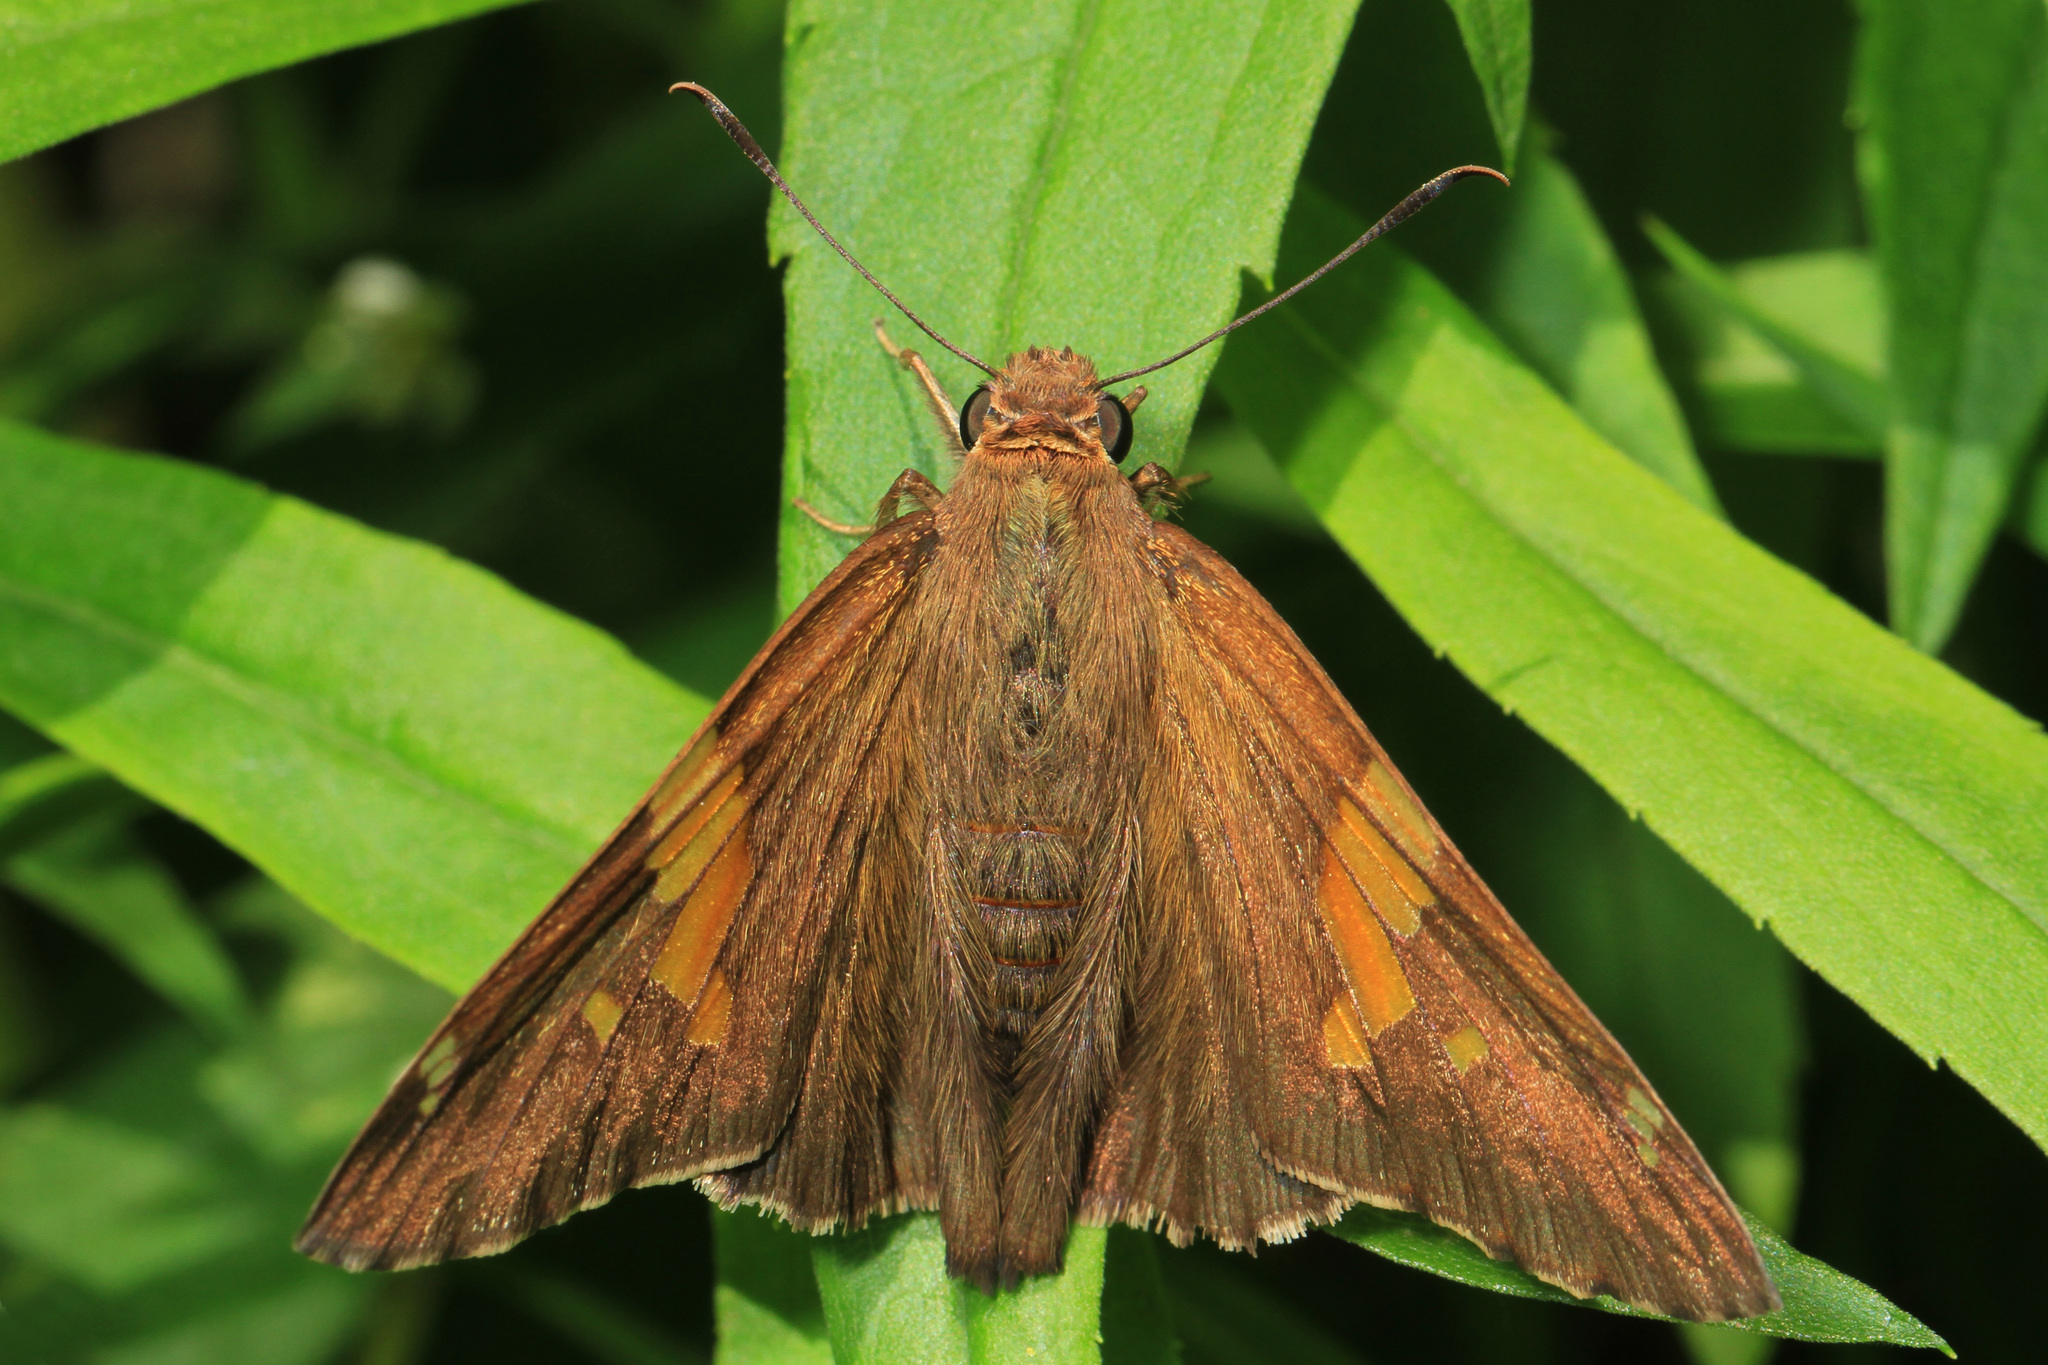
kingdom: Animalia
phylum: Arthropoda
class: Insecta
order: Lepidoptera
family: Hesperiidae
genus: Epargyreus
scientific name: Epargyreus clarus
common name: Silver-spotted skipper
